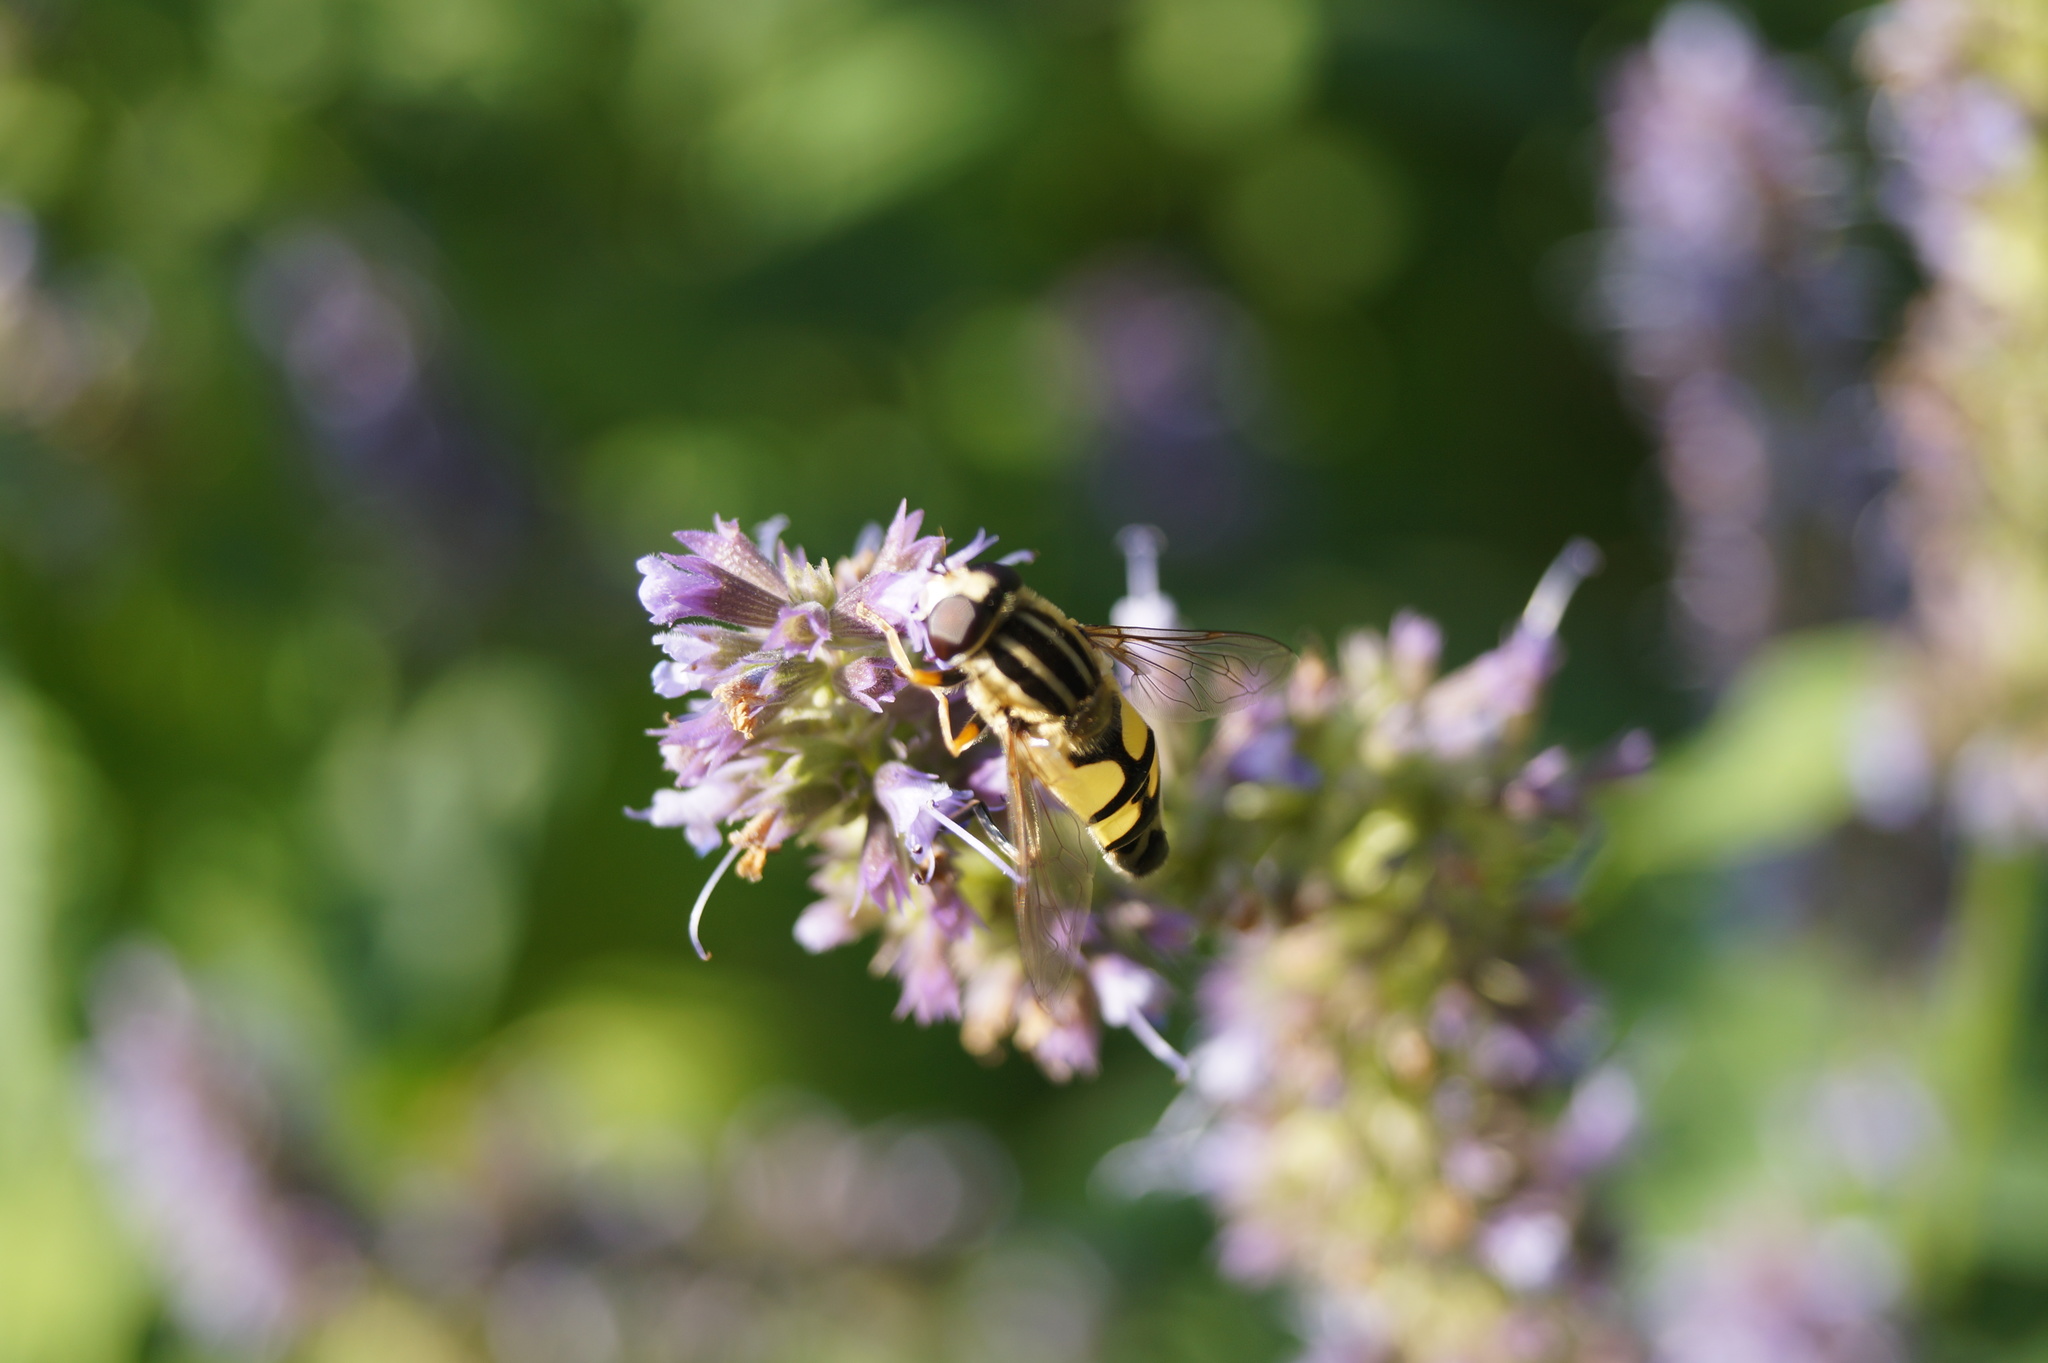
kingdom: Animalia
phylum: Arthropoda
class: Insecta
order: Diptera
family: Syrphidae
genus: Helophilus
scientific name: Helophilus trivittatus
